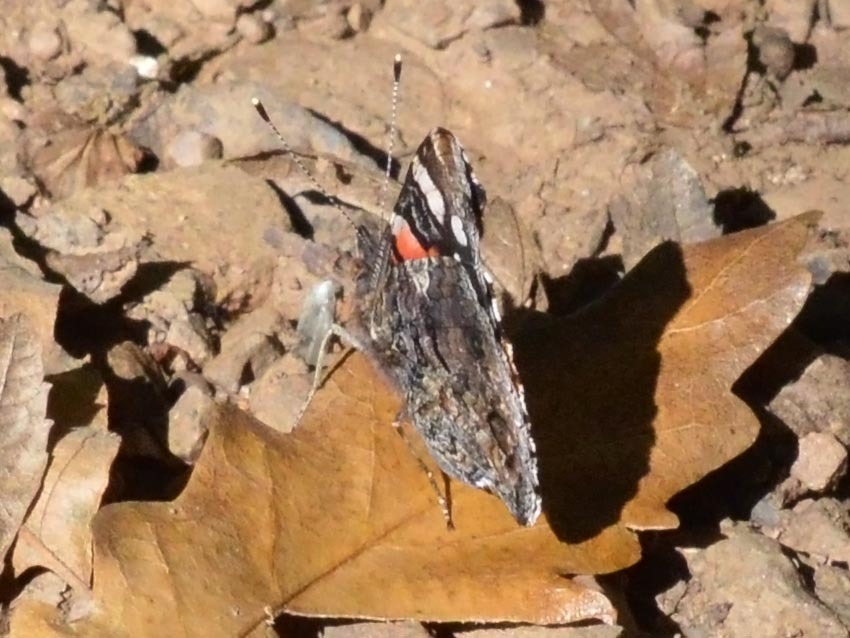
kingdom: Animalia
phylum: Arthropoda
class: Insecta
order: Lepidoptera
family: Nymphalidae
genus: Vanessa
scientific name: Vanessa atalanta
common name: Red admiral
